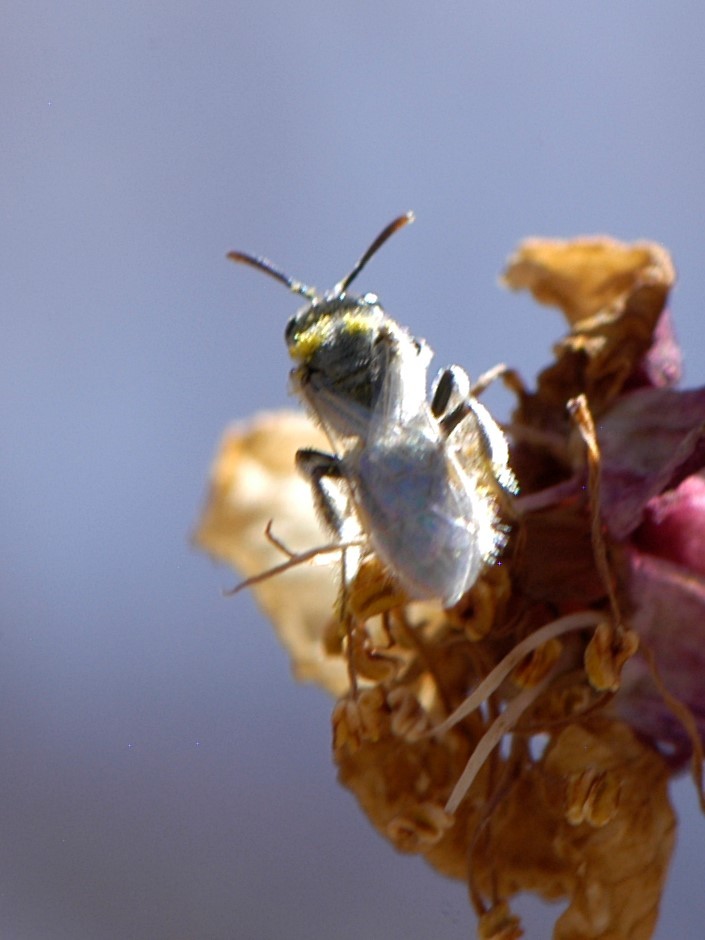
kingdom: Animalia
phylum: Arthropoda
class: Insecta
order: Hymenoptera
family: Halictidae
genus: Dialictus
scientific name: Dialictus
